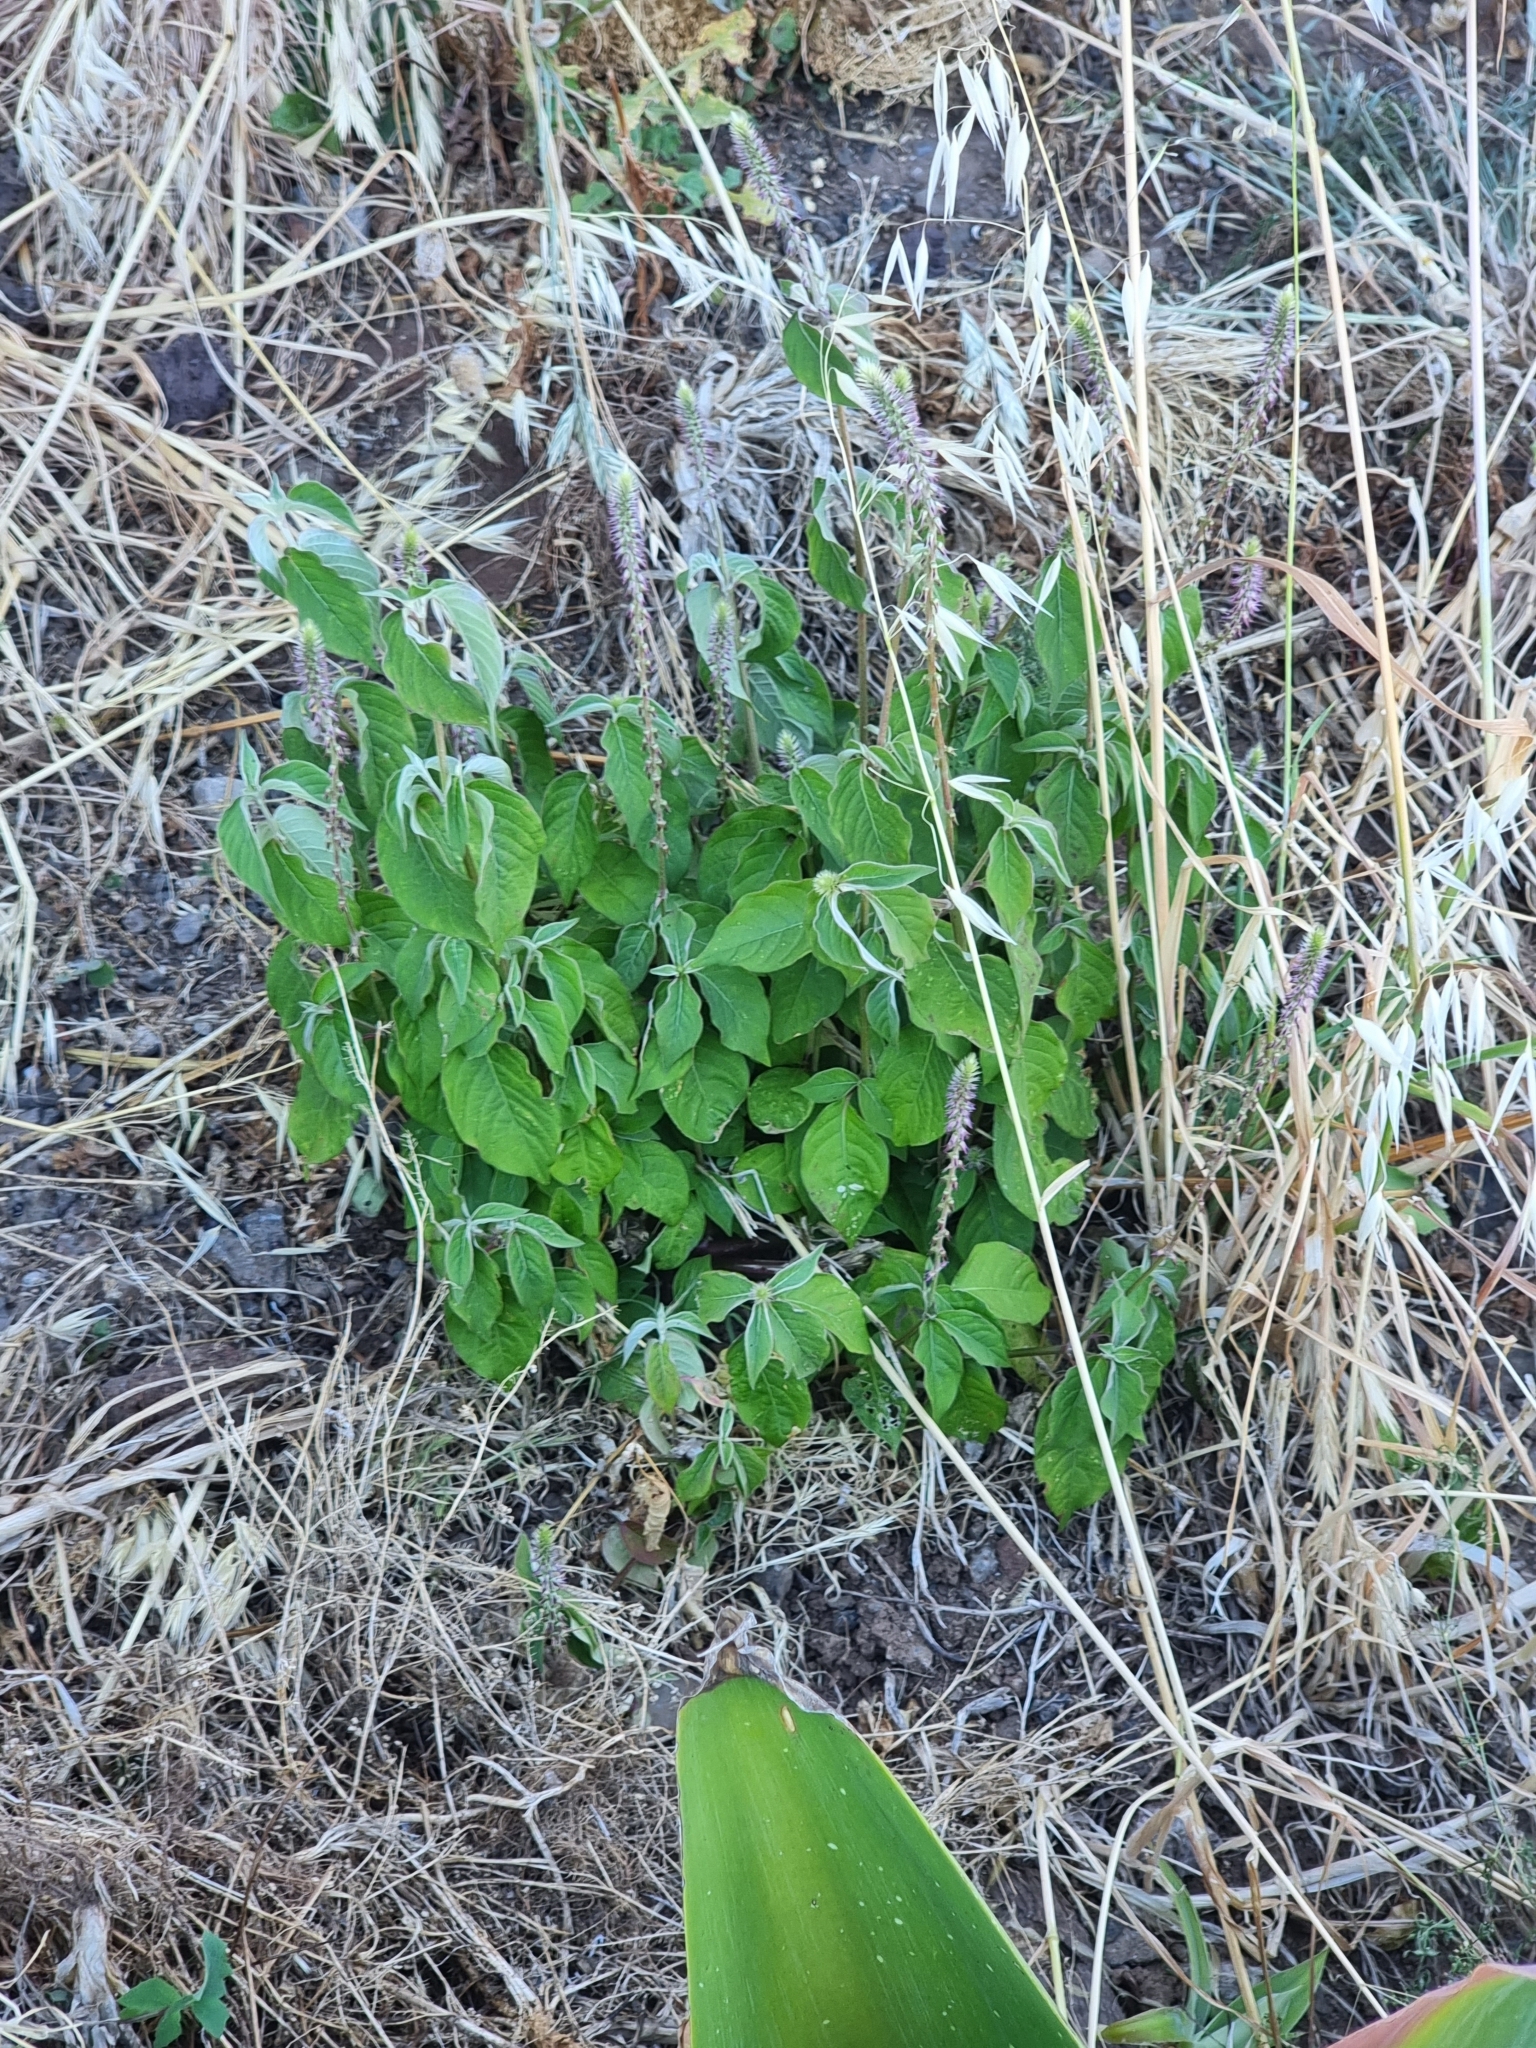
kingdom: Plantae
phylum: Tracheophyta
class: Magnoliopsida
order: Caryophyllales
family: Amaranthaceae
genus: Achyranthes
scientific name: Achyranthes aspera
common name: Devil's horsewhip
